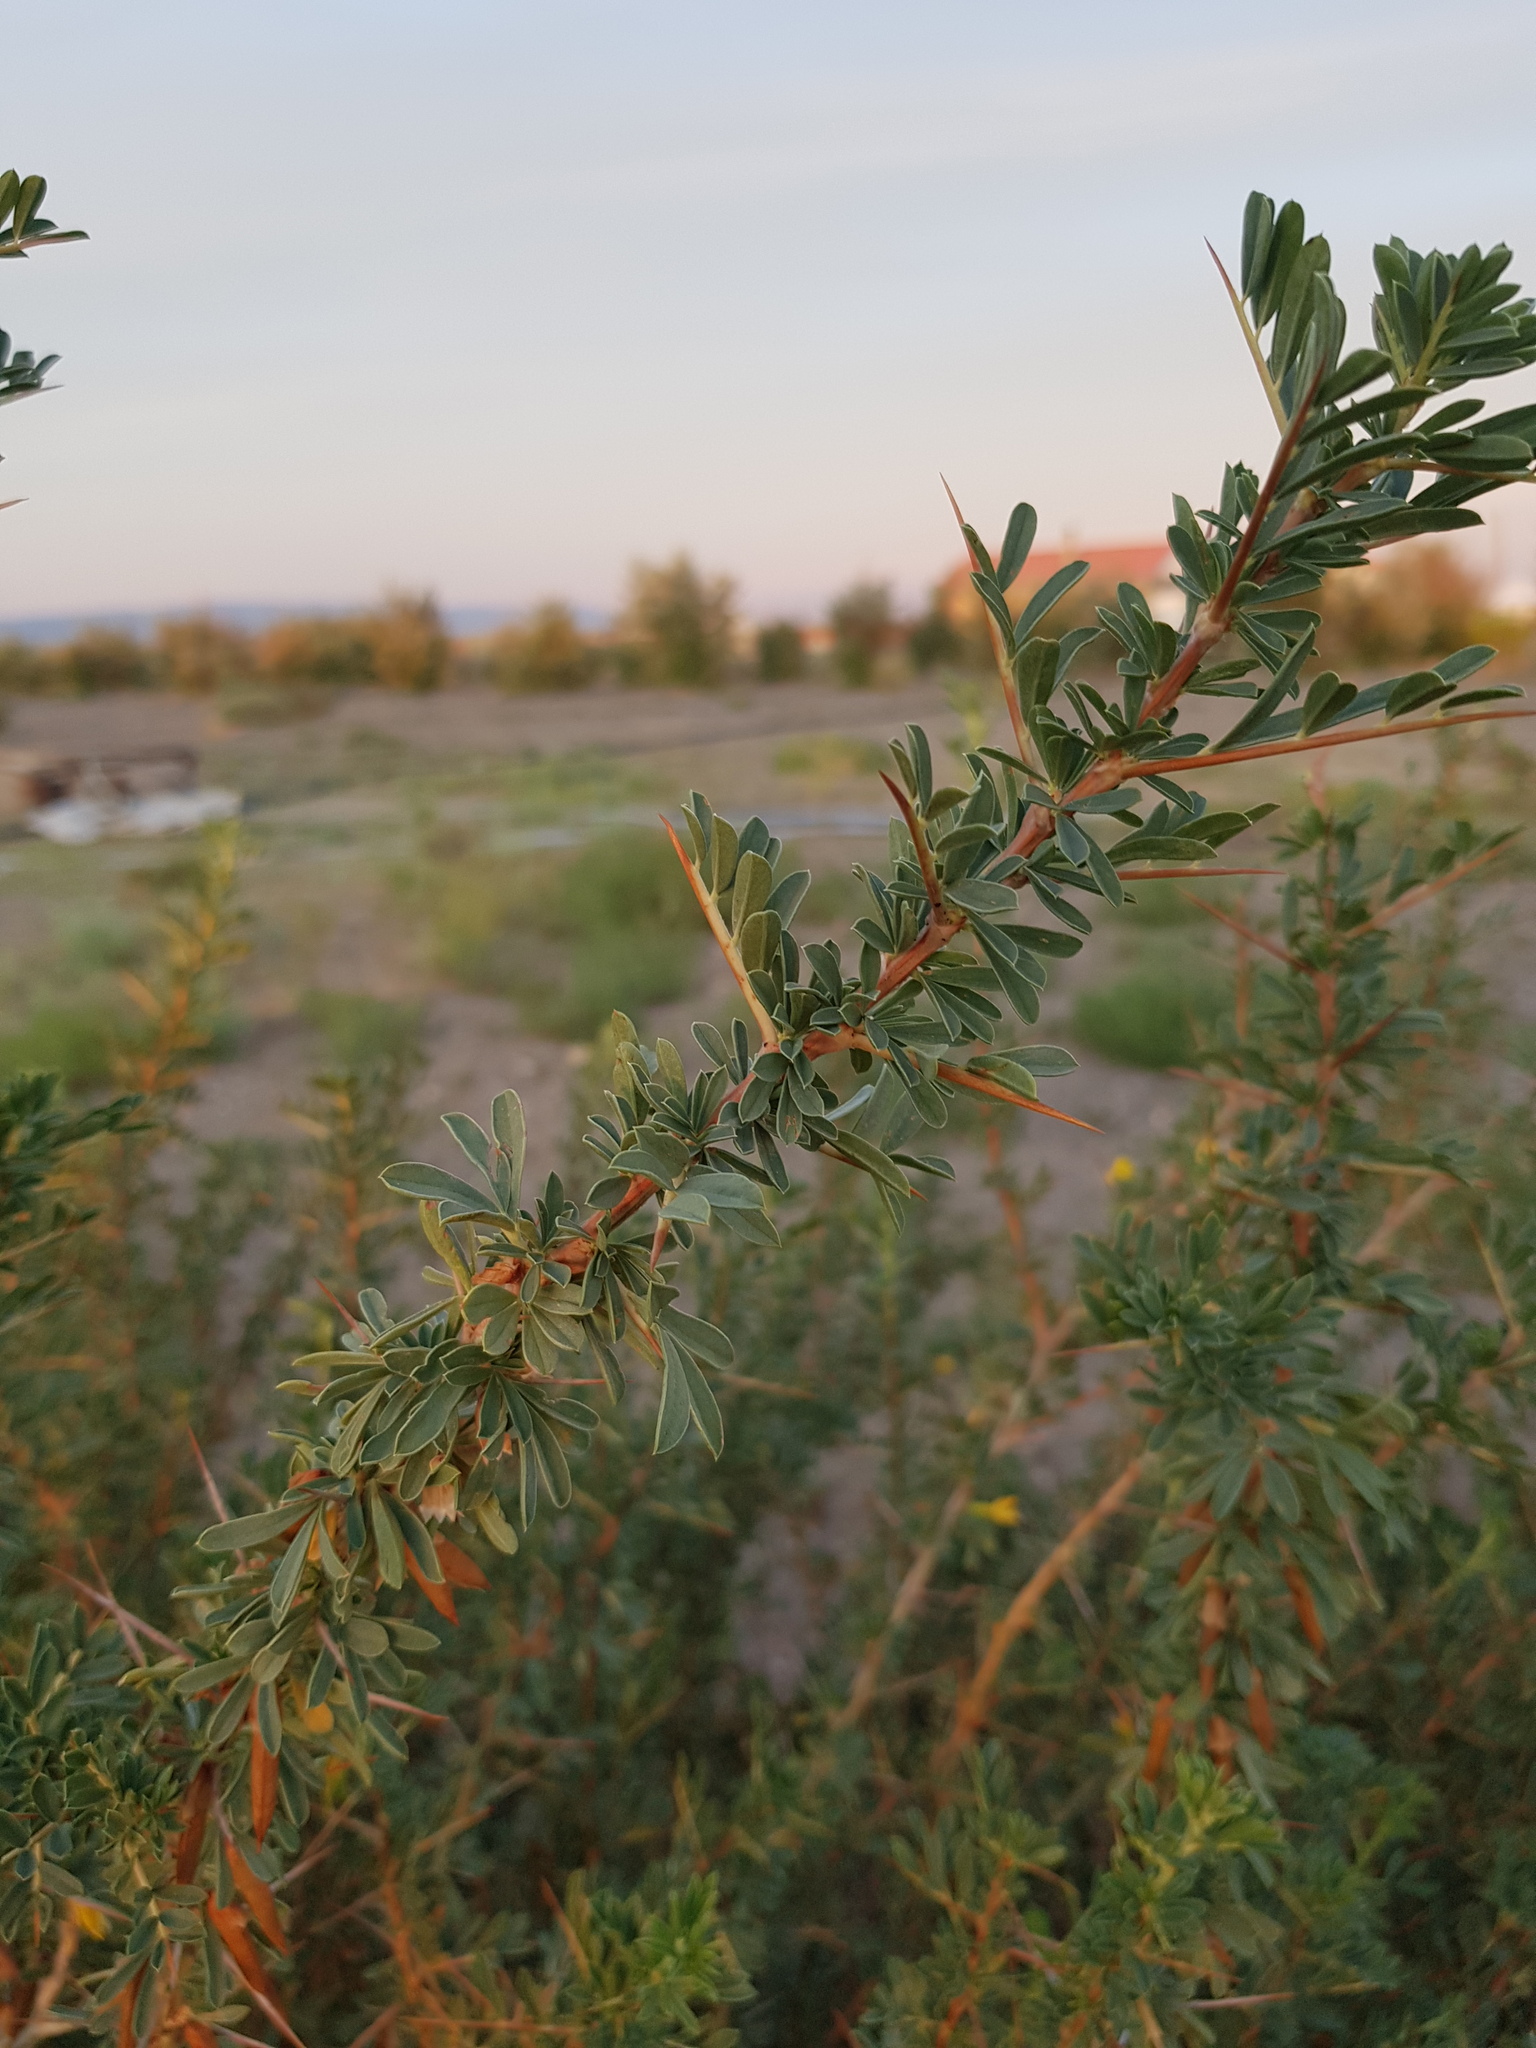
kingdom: Plantae
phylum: Tracheophyta
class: Magnoliopsida
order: Fabales
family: Fabaceae
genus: Caragana
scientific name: Caragana spinosa
